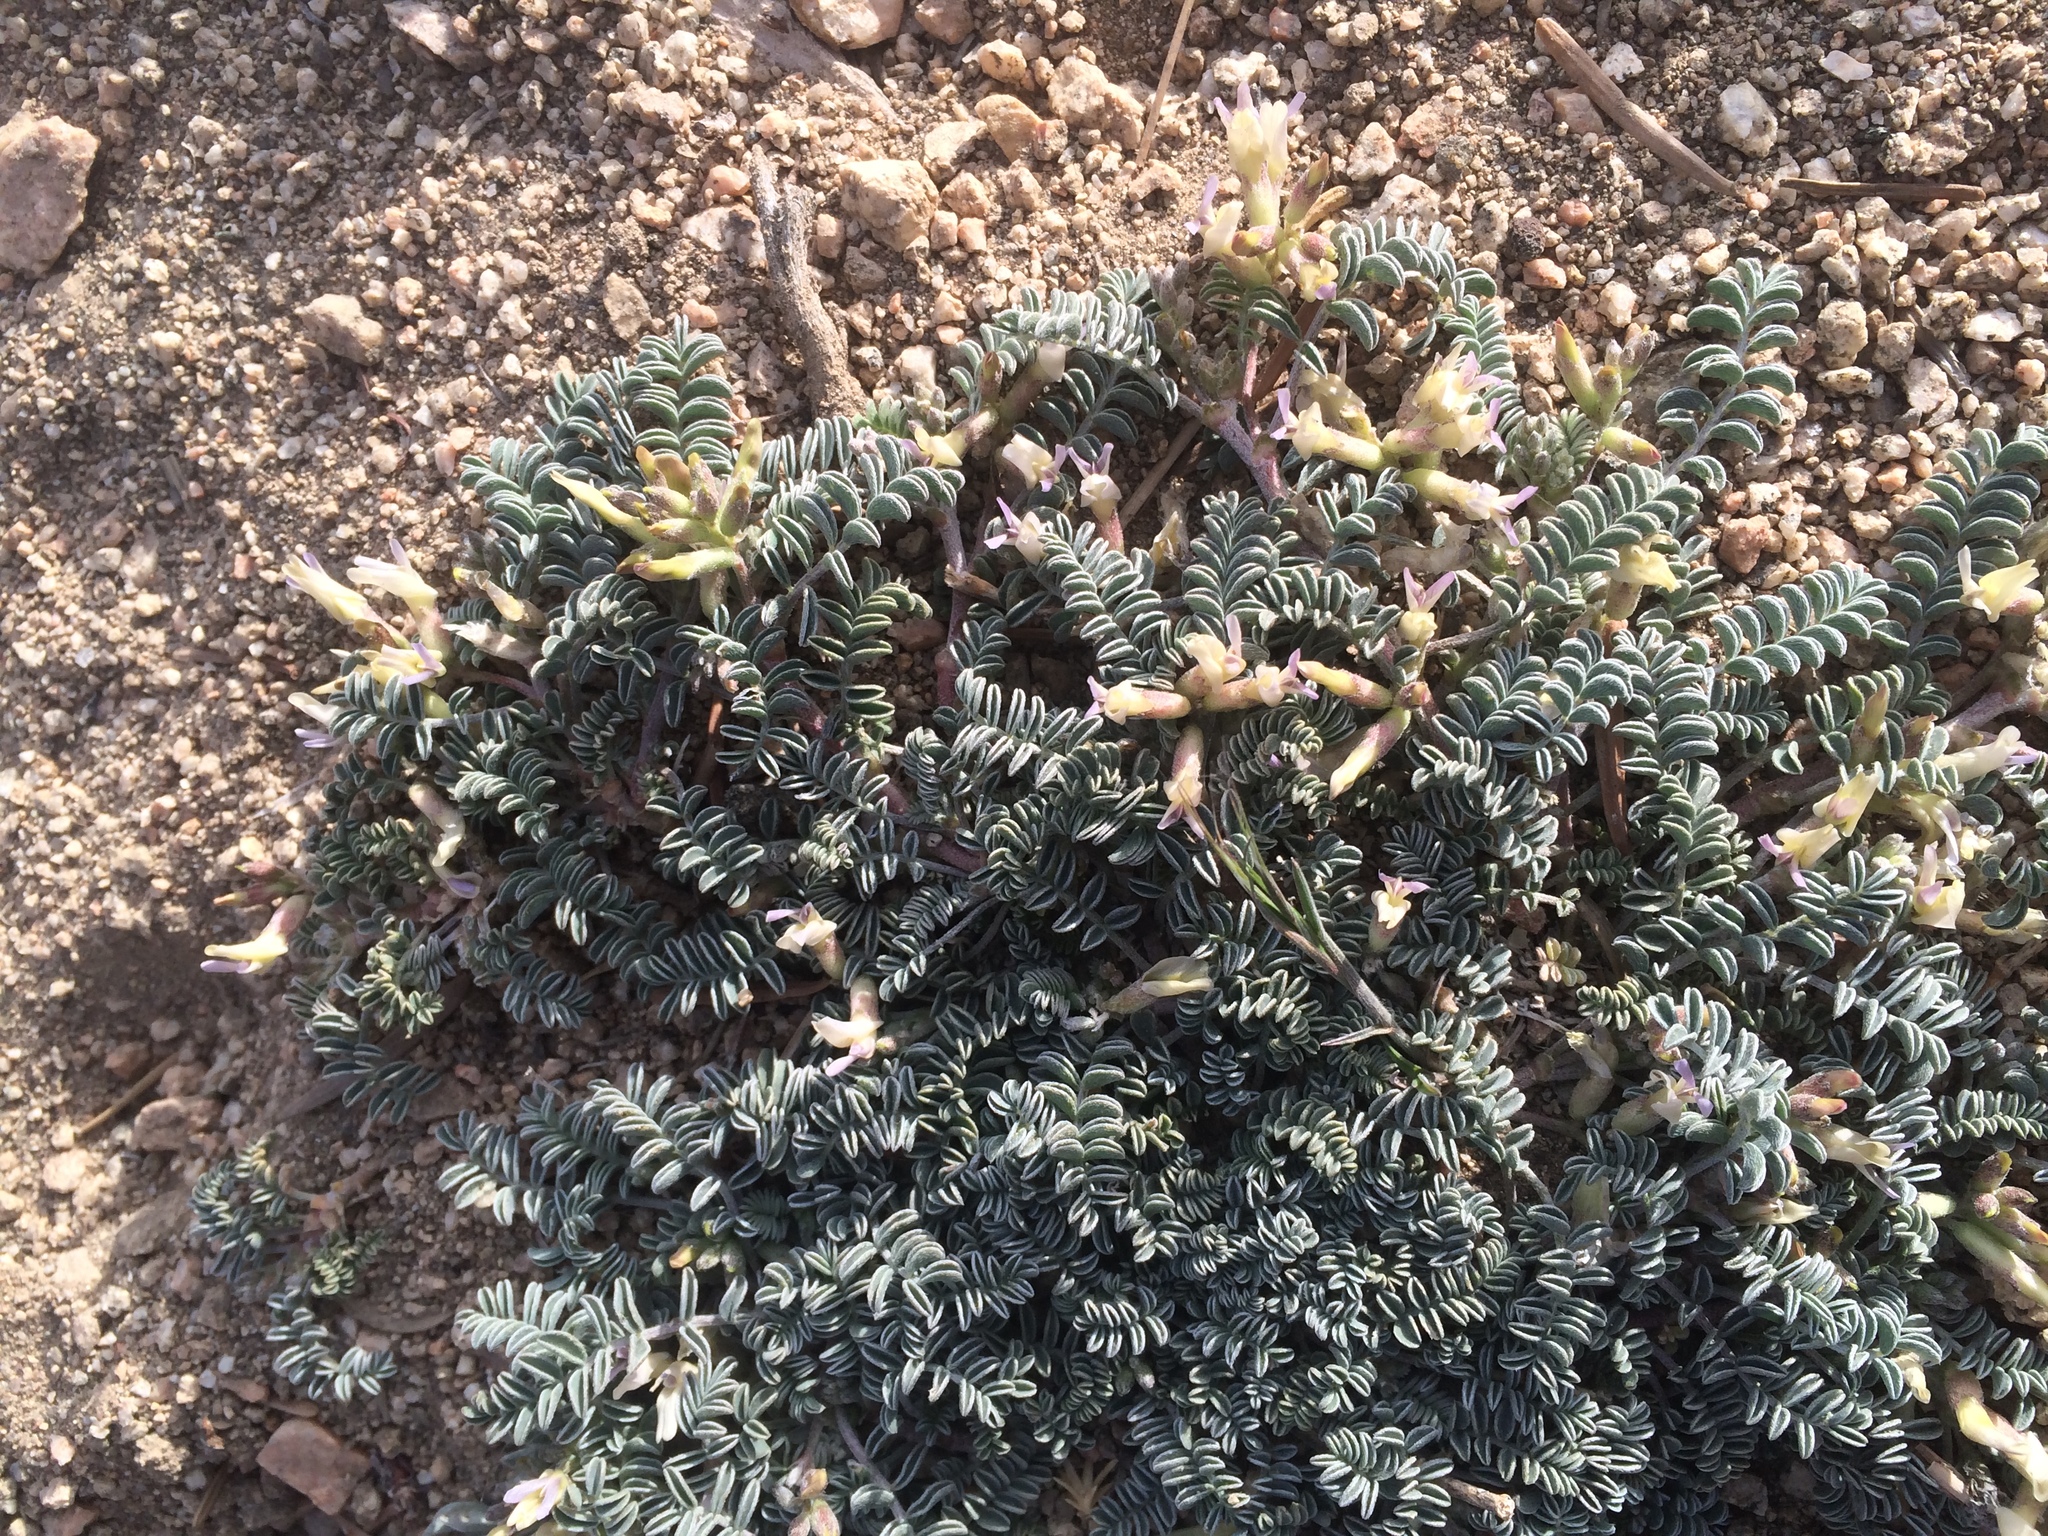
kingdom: Plantae
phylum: Tracheophyta
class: Magnoliopsida
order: Fabales
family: Fabaceae
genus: Astragalus
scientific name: Astragalus lentiginosus
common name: Freckled milkvetch
